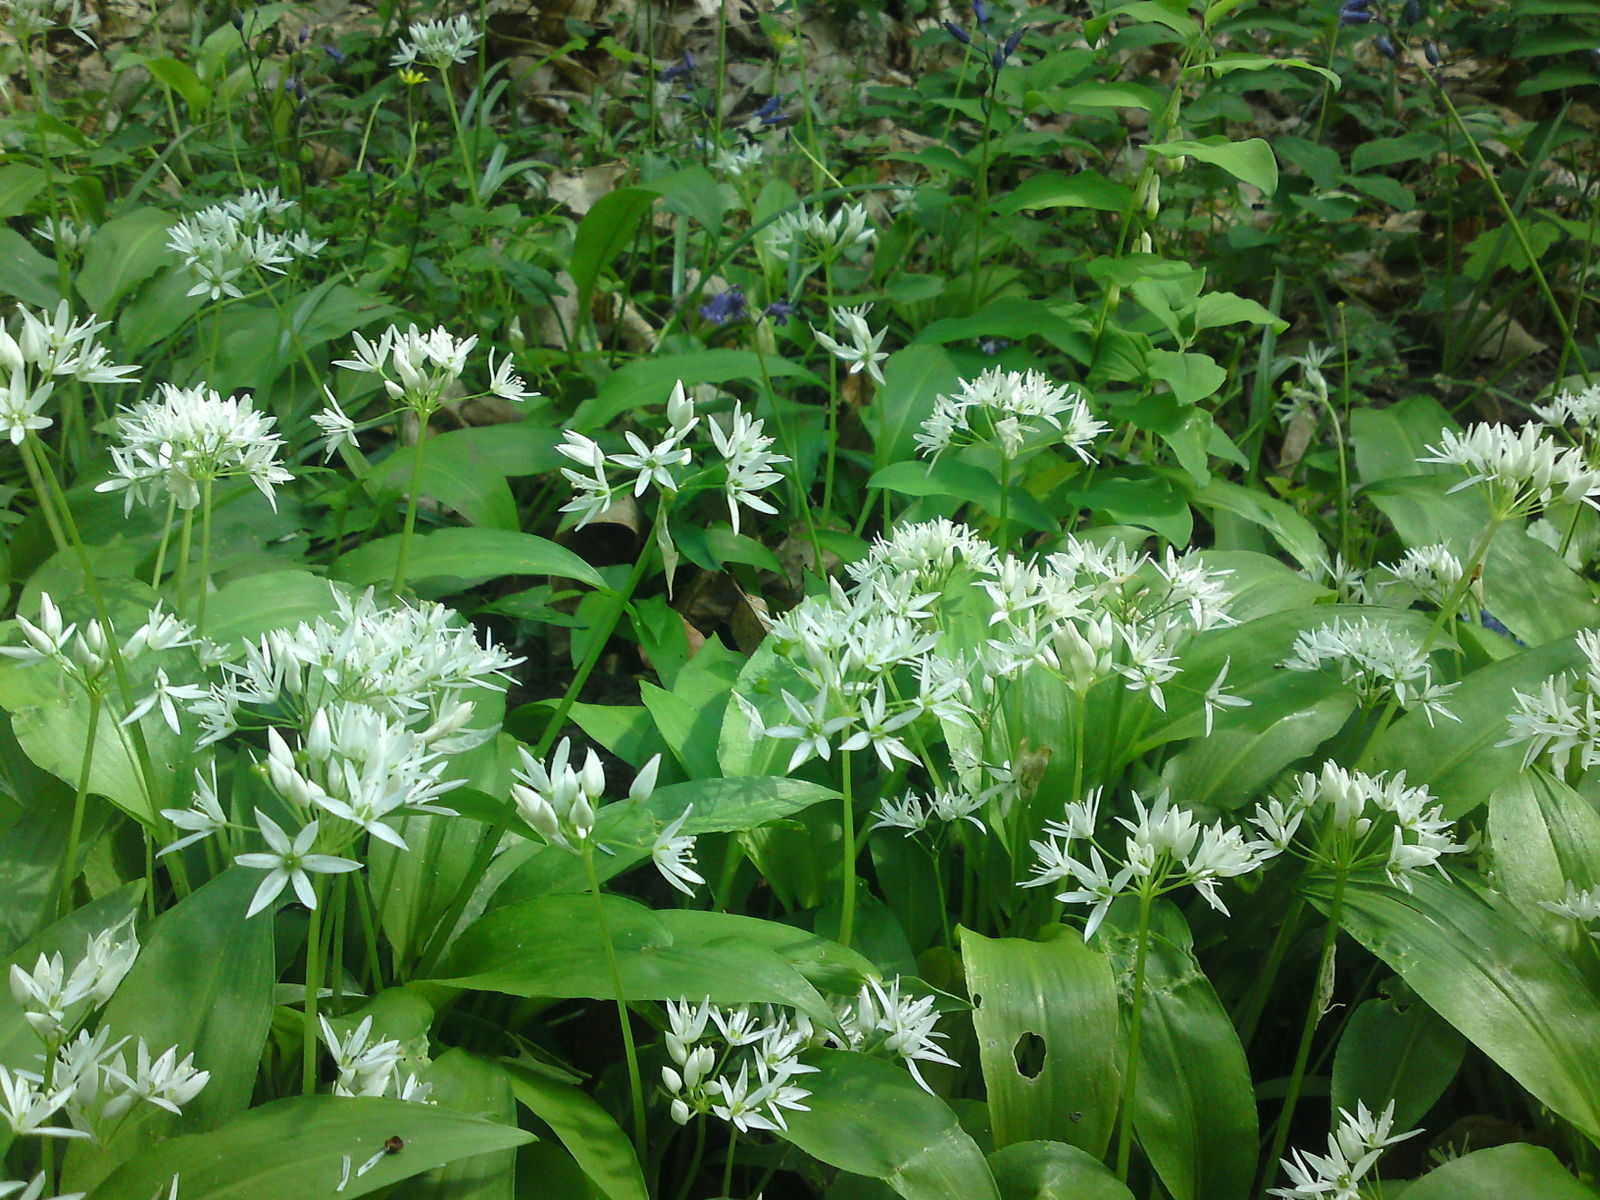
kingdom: Plantae
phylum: Tracheophyta
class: Liliopsida
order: Asparagales
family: Amaryllidaceae
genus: Allium
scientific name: Allium ursinum
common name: Ramsons
